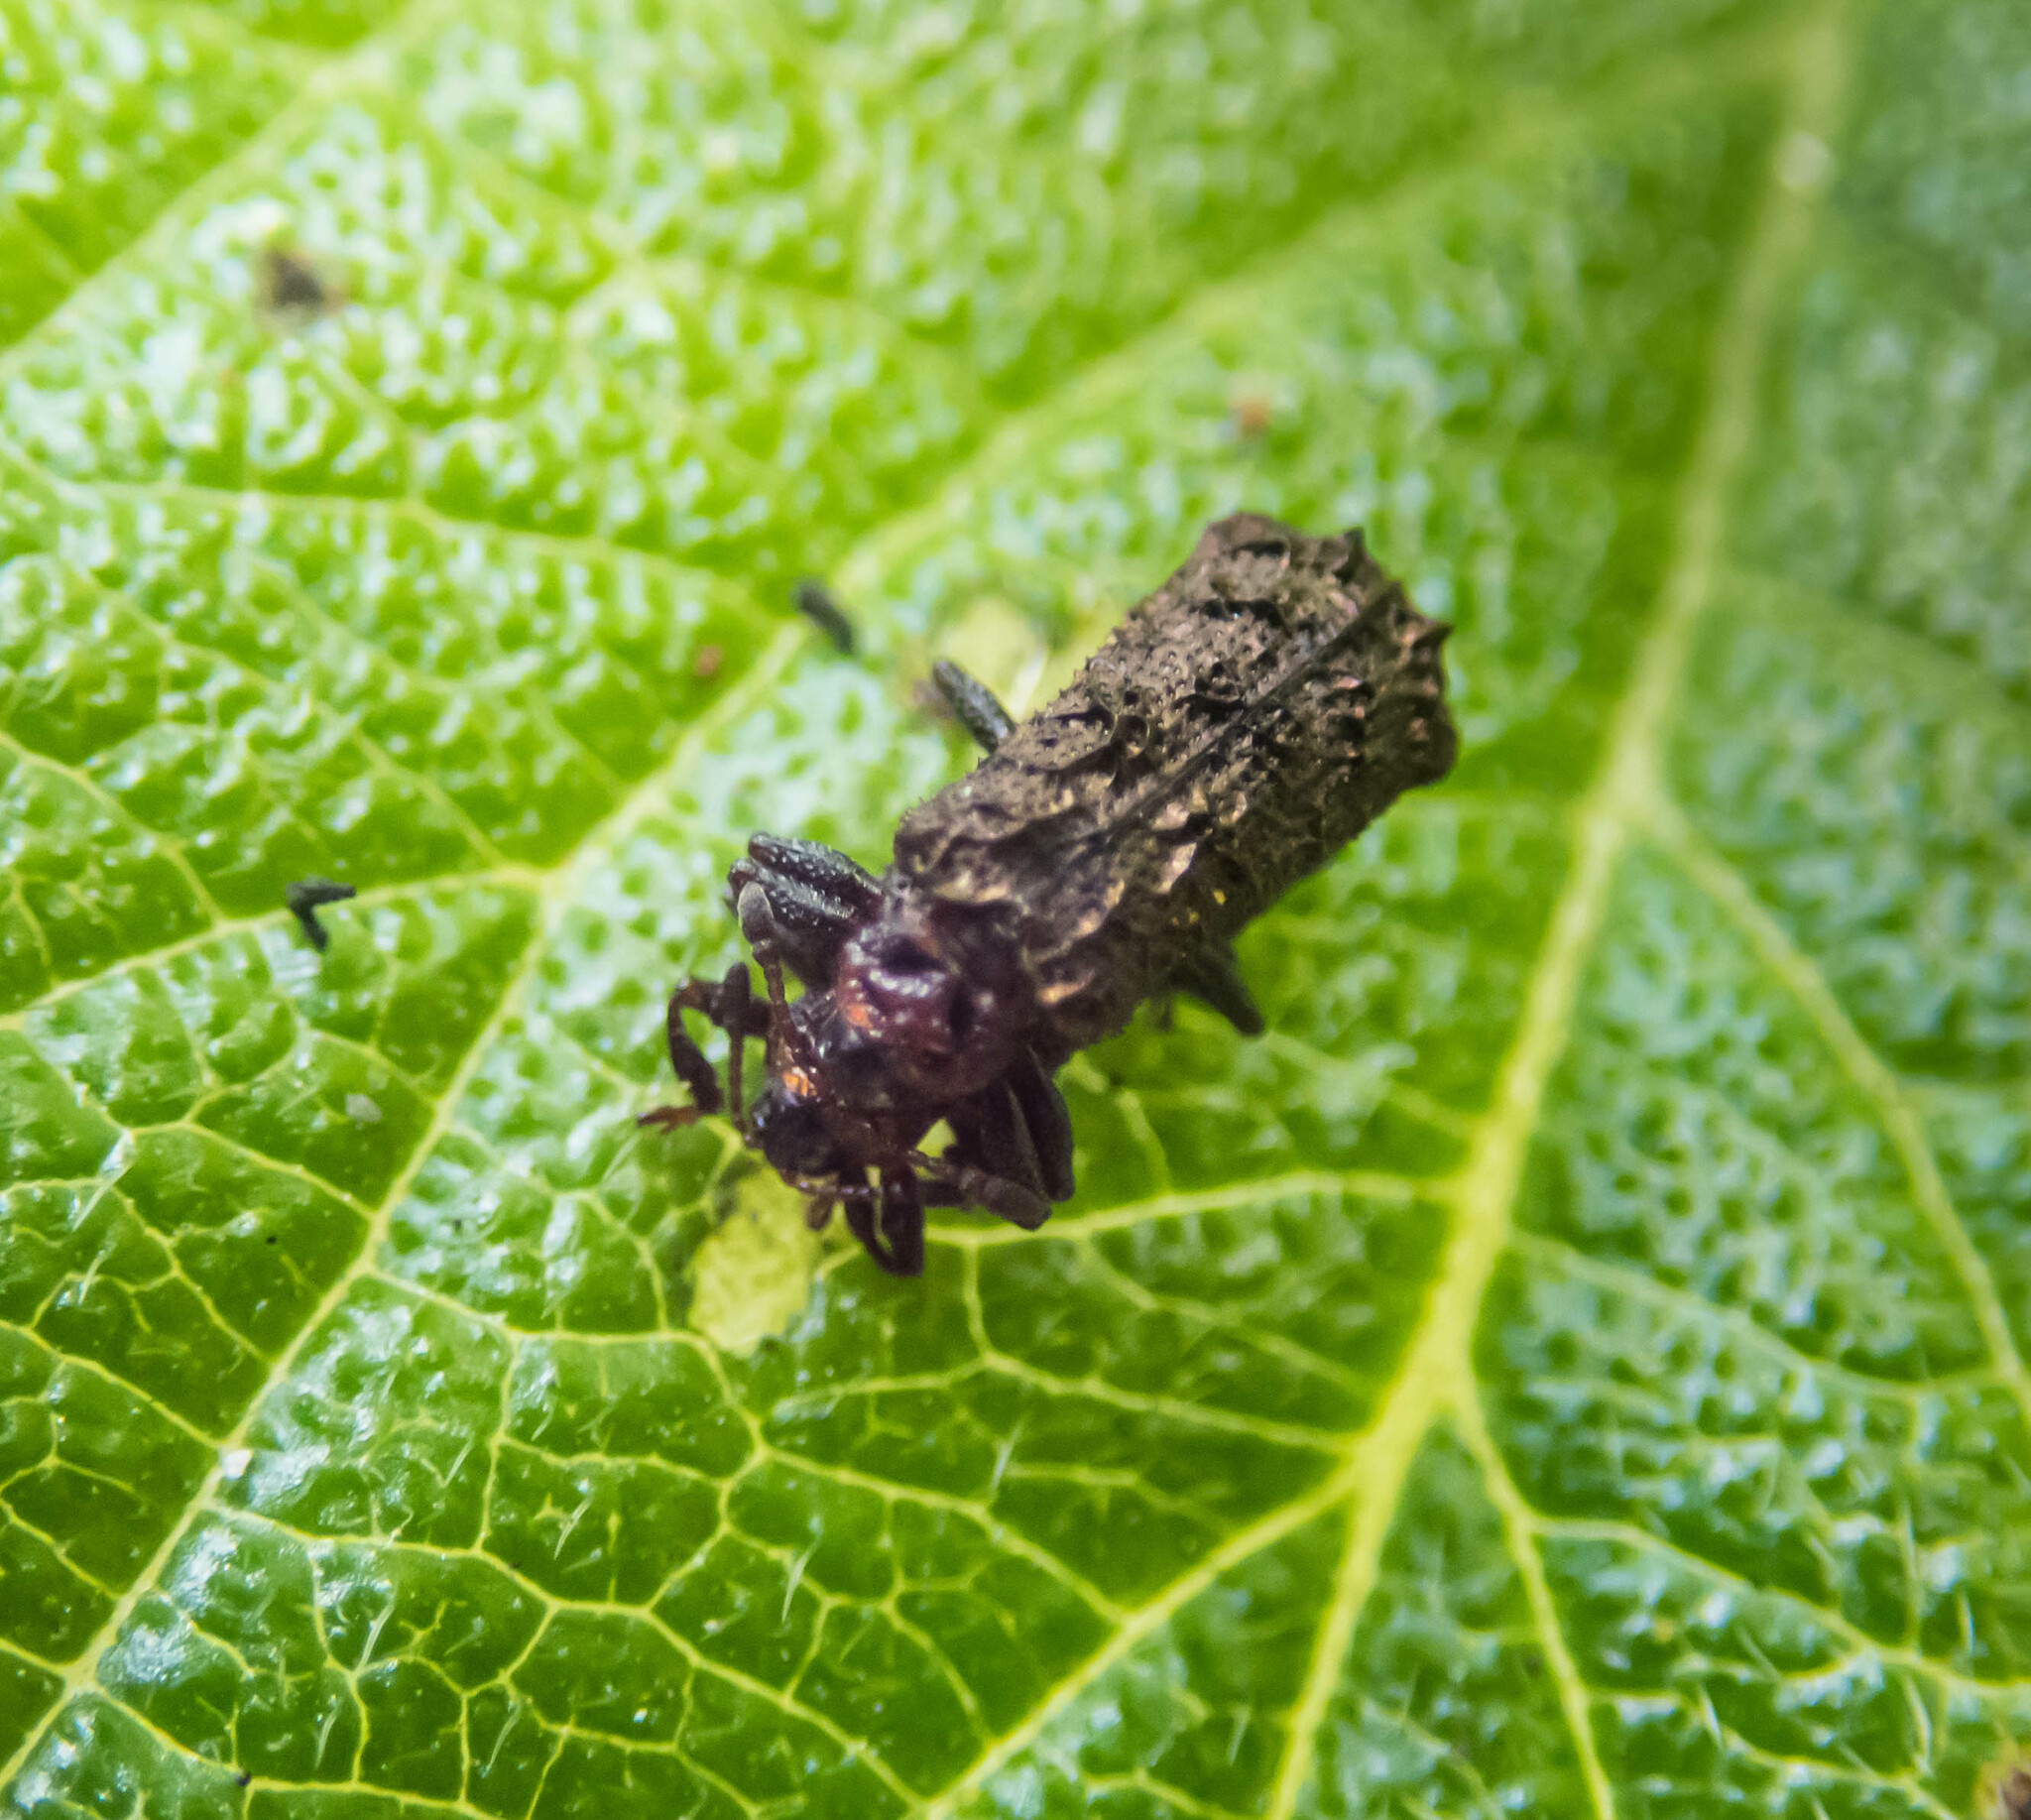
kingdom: Animalia
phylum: Arthropoda
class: Insecta
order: Coleoptera
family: Chrysomelidae
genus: Octotoma
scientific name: Octotoma scabripennis
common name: Beetle
